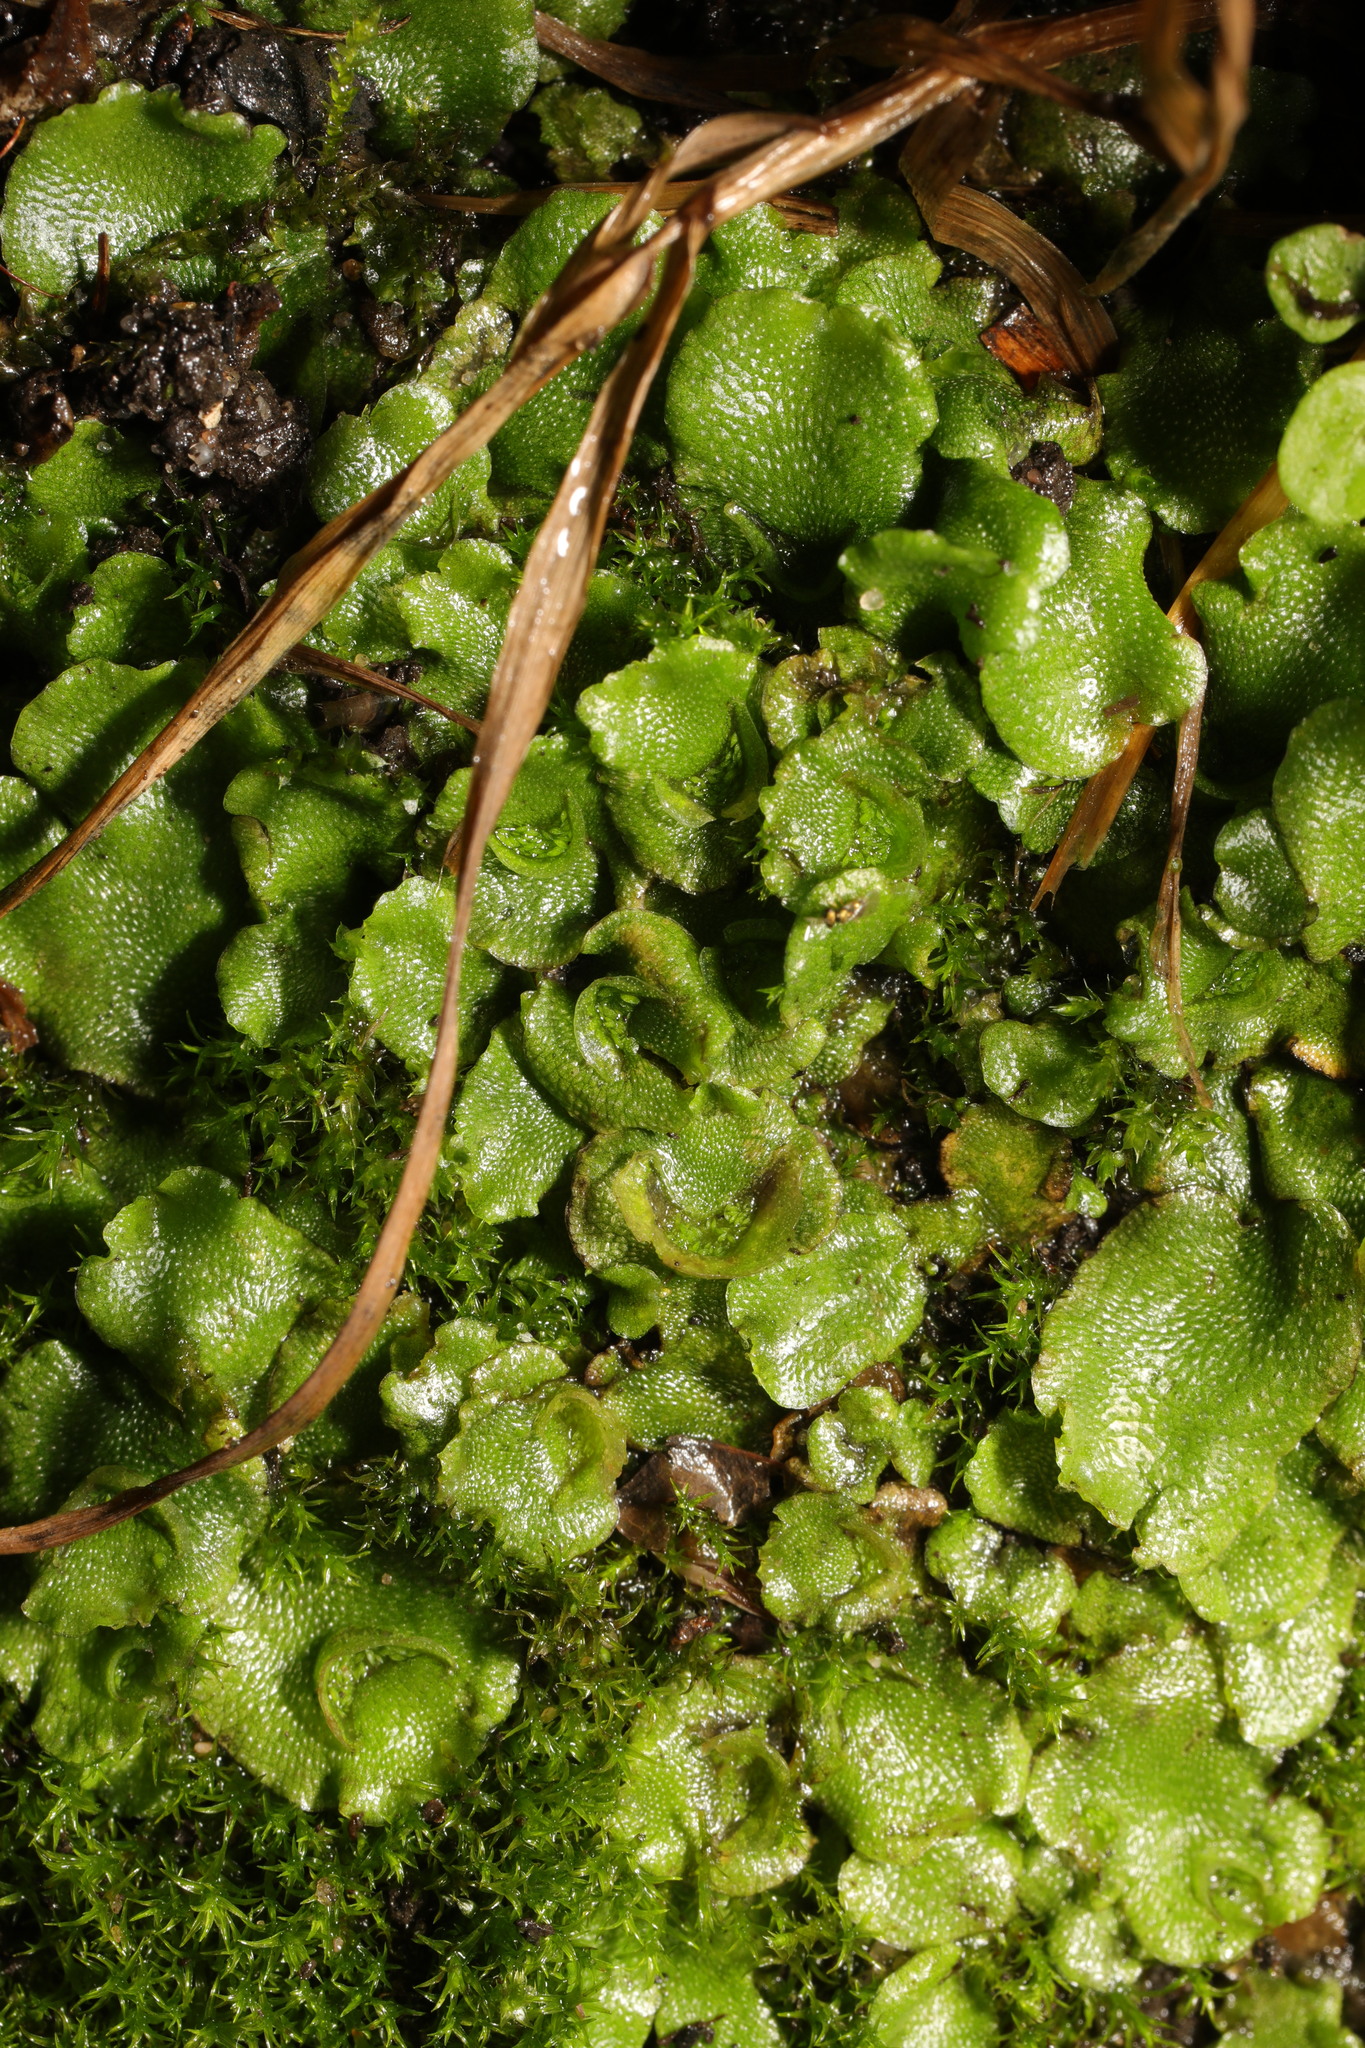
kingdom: Plantae
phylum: Marchantiophyta
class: Marchantiopsida
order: Lunulariales
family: Lunulariaceae
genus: Lunularia
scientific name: Lunularia cruciata
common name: Crescent-cup liverwort
